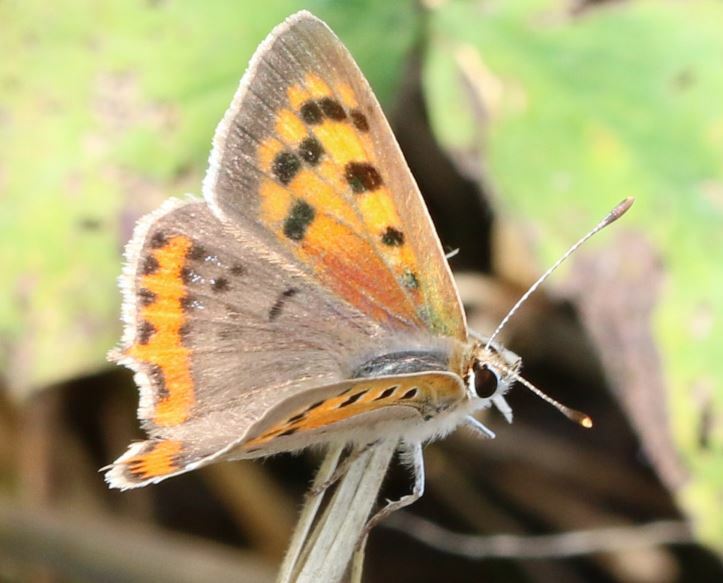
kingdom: Animalia
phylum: Arthropoda
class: Insecta
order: Lepidoptera
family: Lycaenidae
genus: Lycaena
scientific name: Lycaena phlaeas
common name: Small copper
